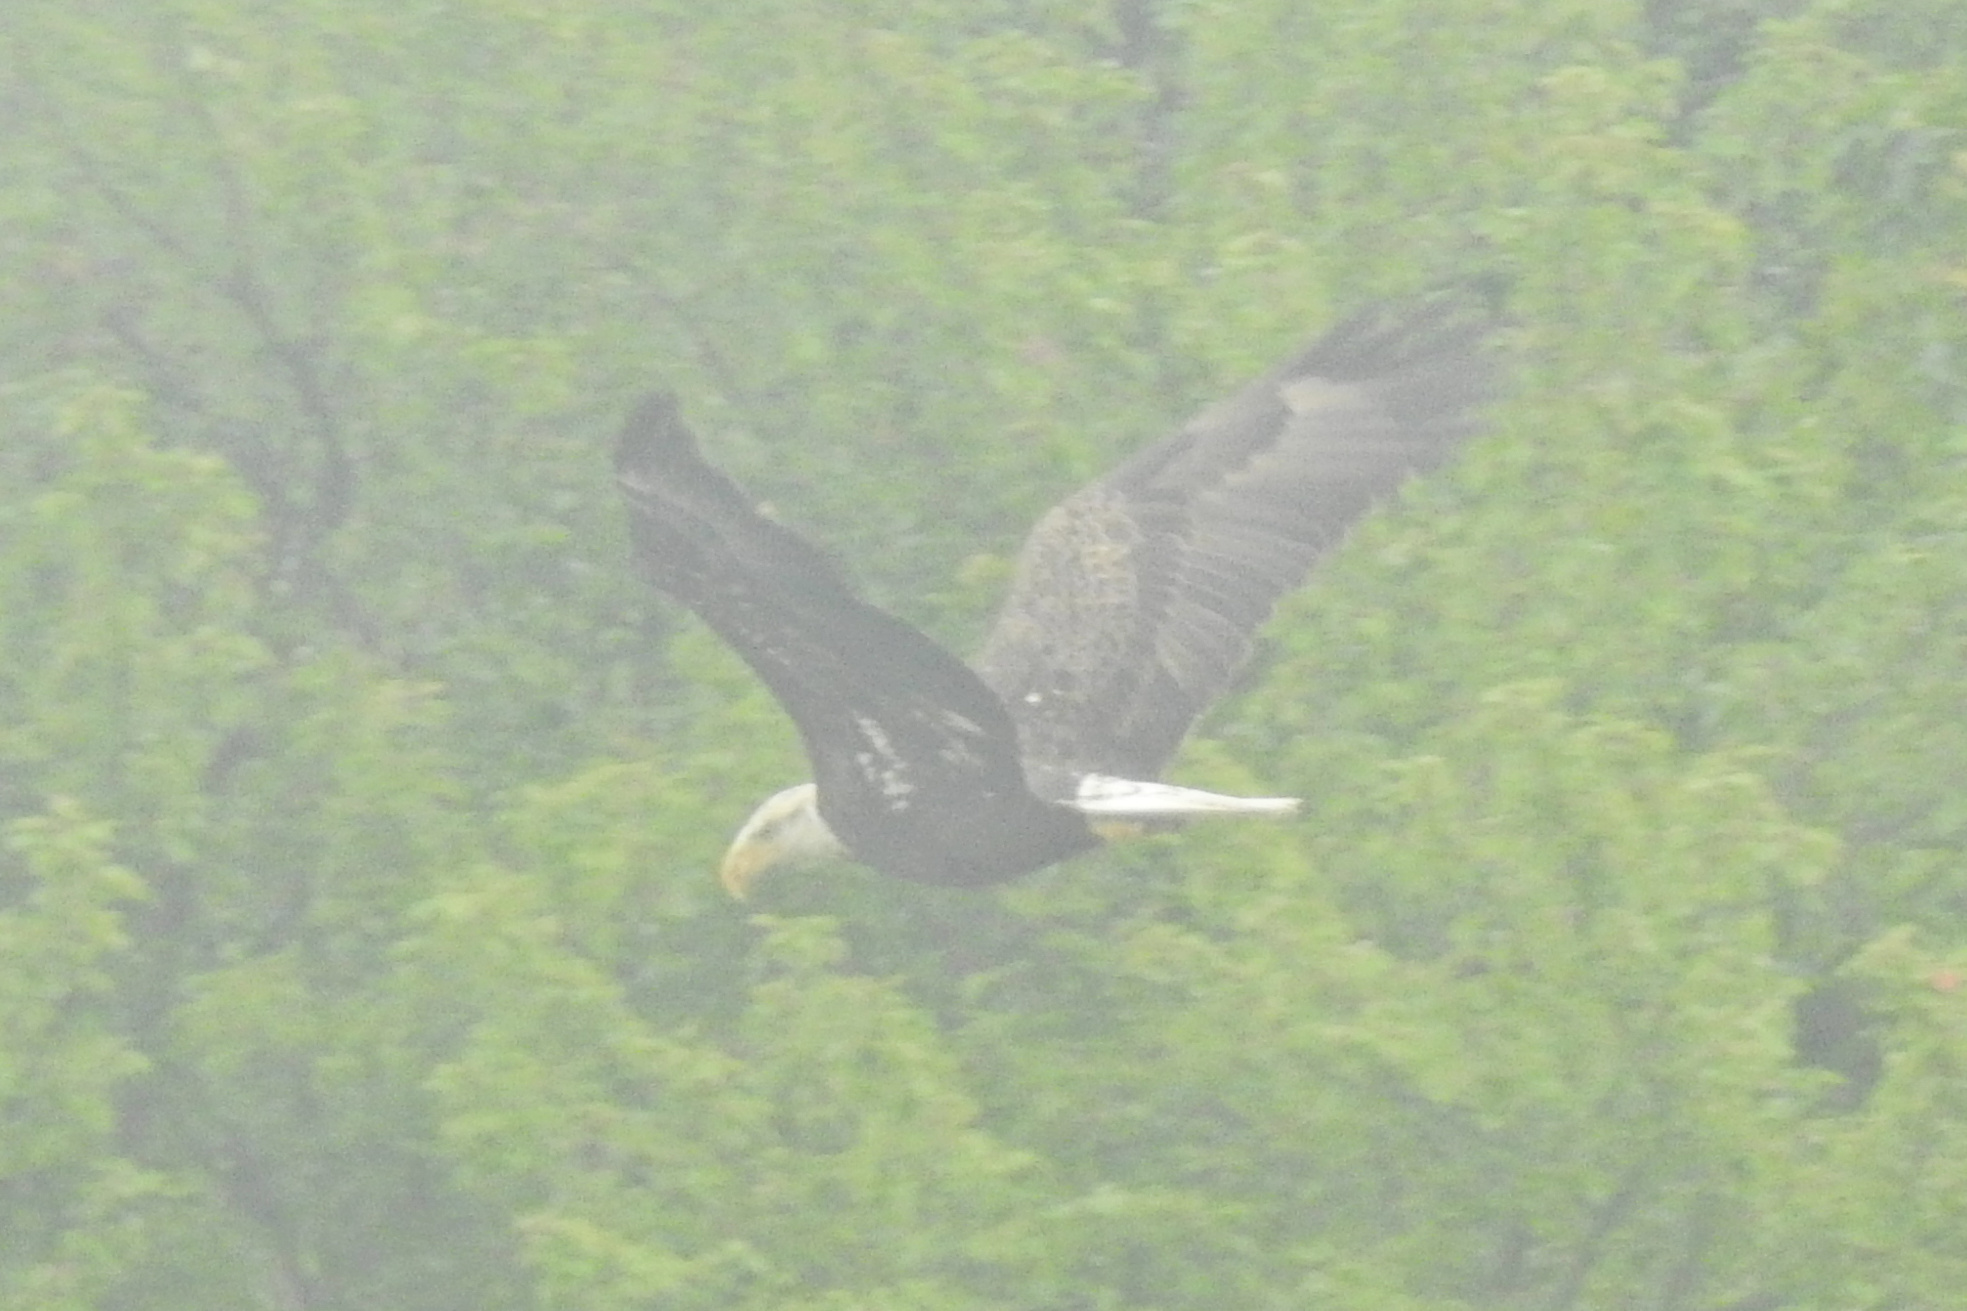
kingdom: Animalia
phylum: Chordata
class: Aves
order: Accipitriformes
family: Accipitridae
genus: Haliaeetus
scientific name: Haliaeetus leucocephalus
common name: Bald eagle
